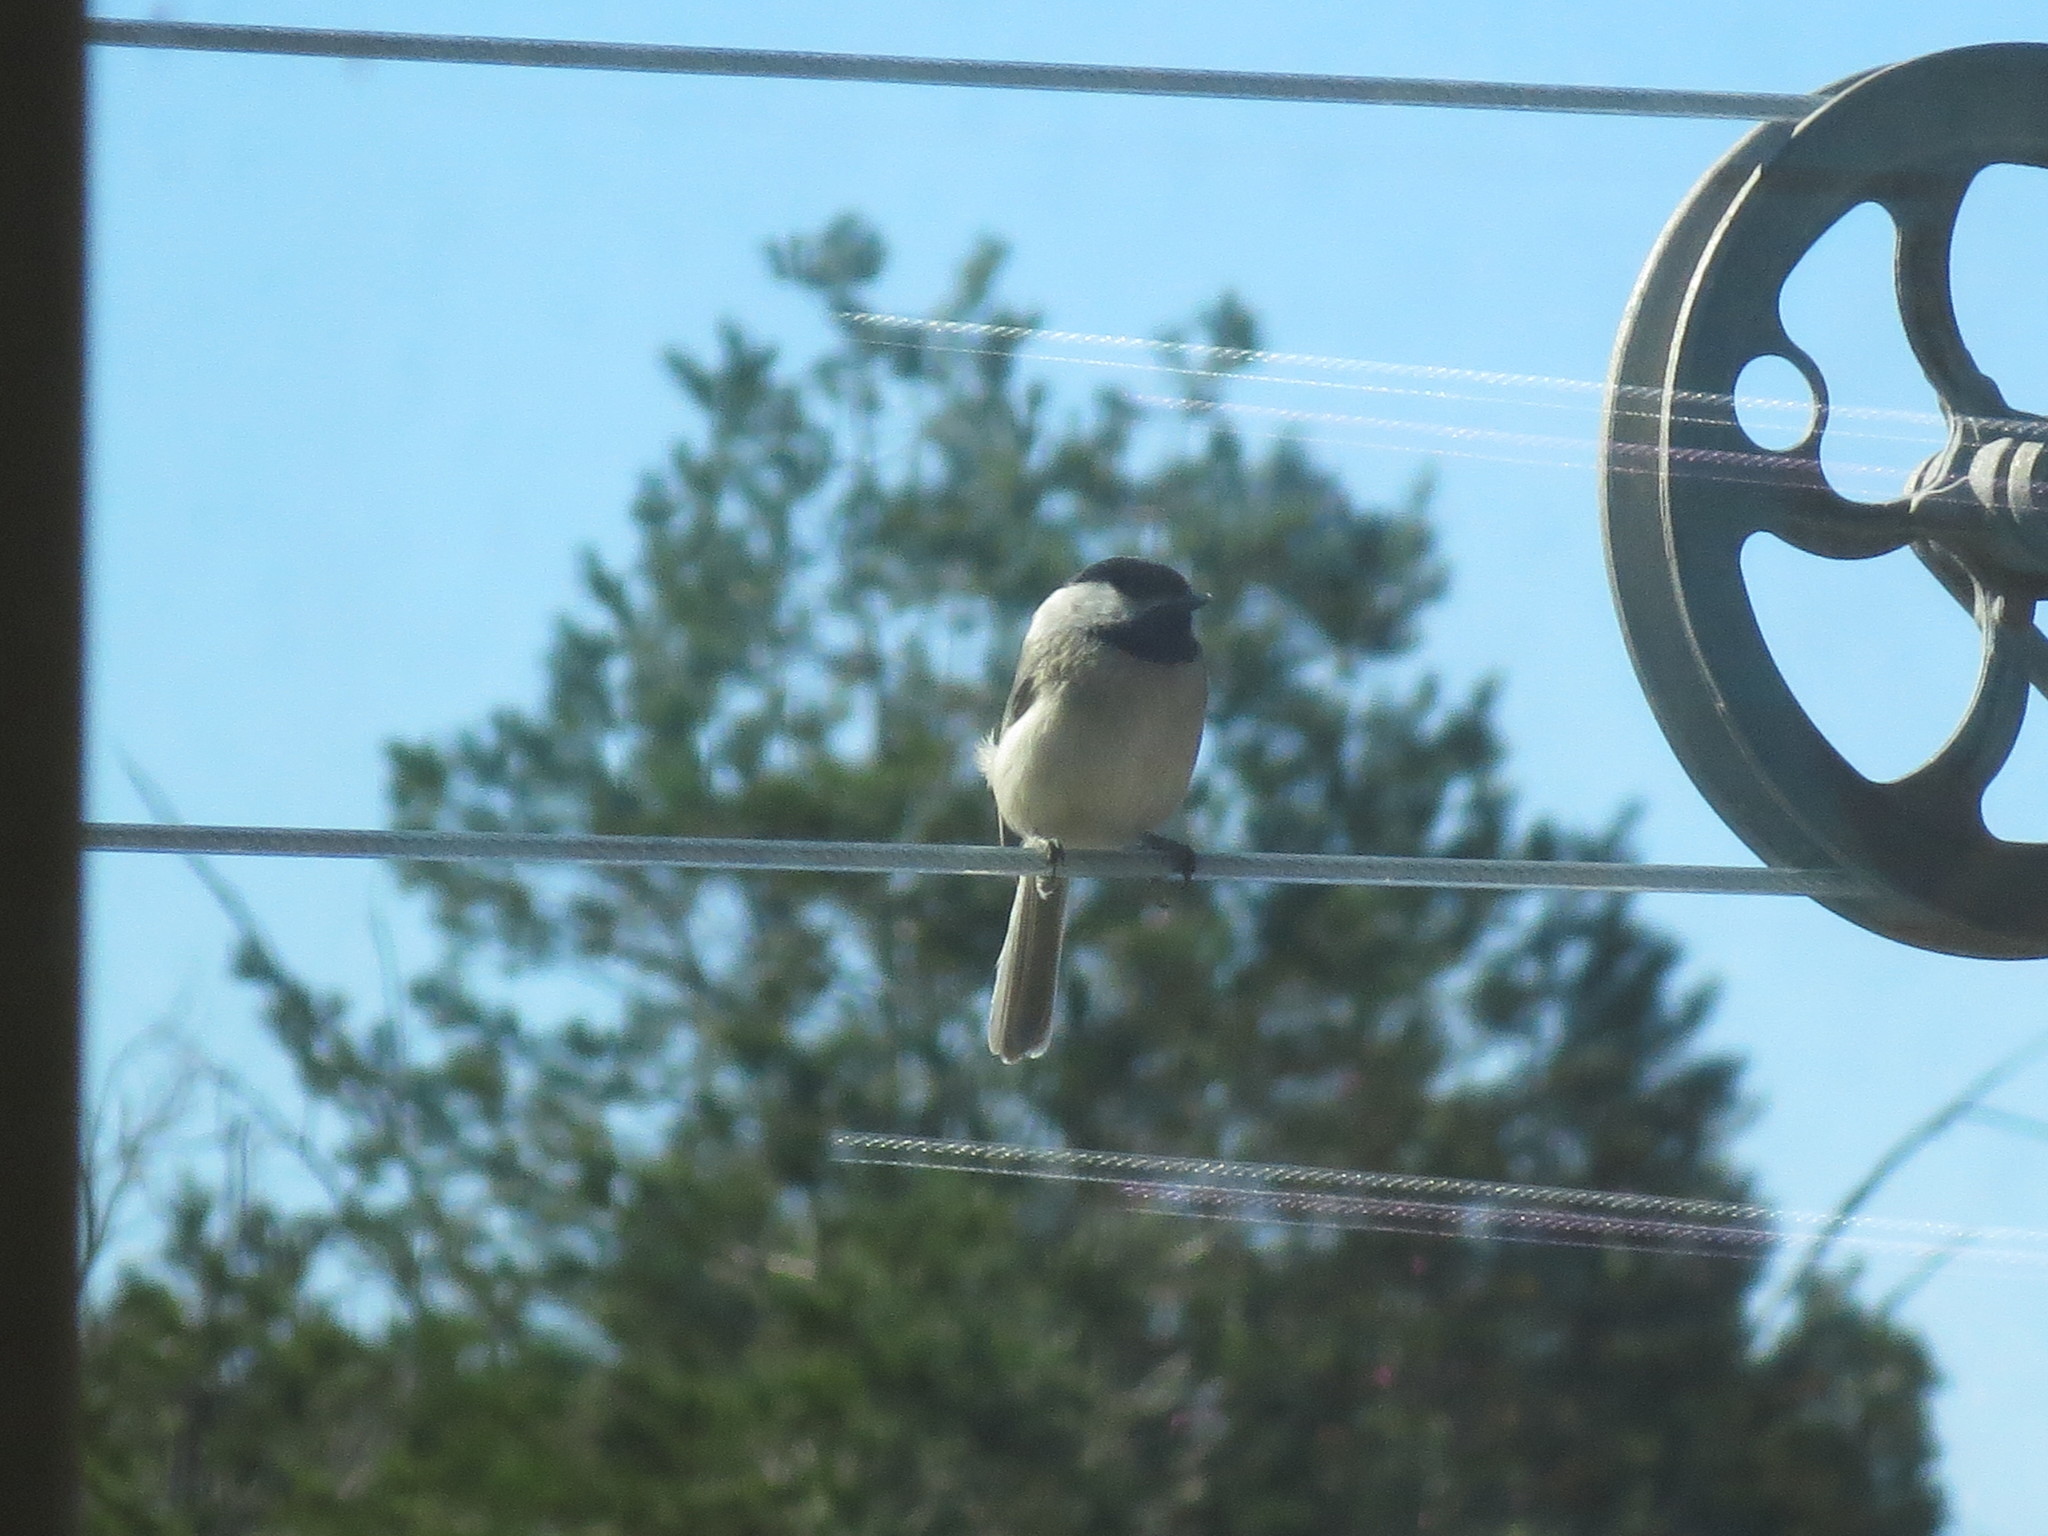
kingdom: Animalia
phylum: Chordata
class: Aves
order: Passeriformes
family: Paridae
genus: Poecile
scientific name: Poecile carolinensis
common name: Carolina chickadee
